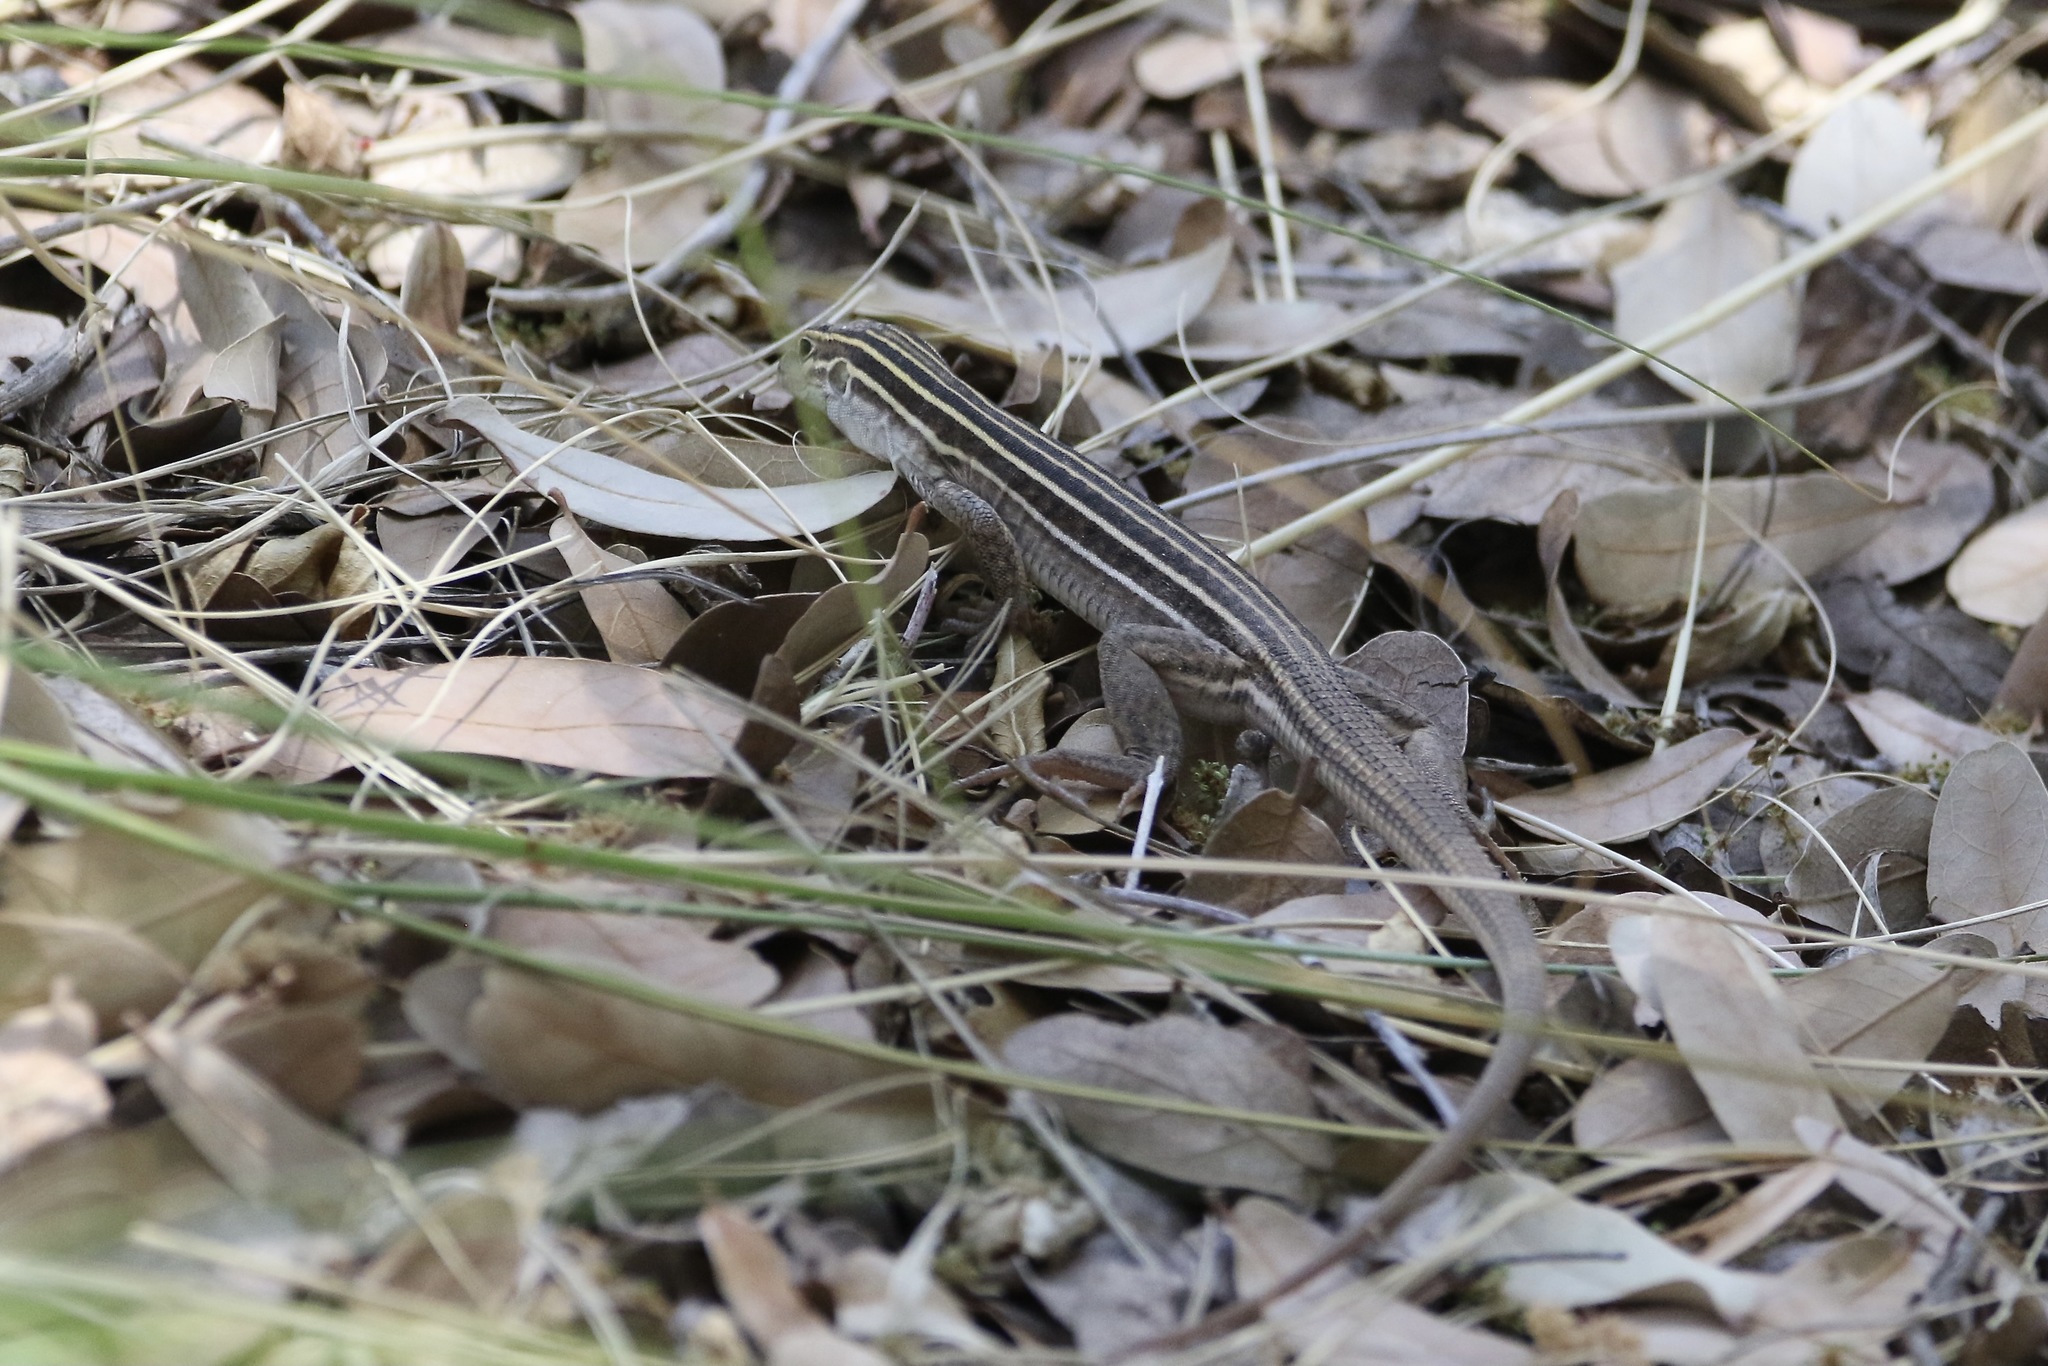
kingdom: Animalia
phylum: Chordata
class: Squamata
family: Teiidae
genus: Aspidoscelis
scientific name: Aspidoscelis sonorae
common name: Sonoran spotted whiptail
